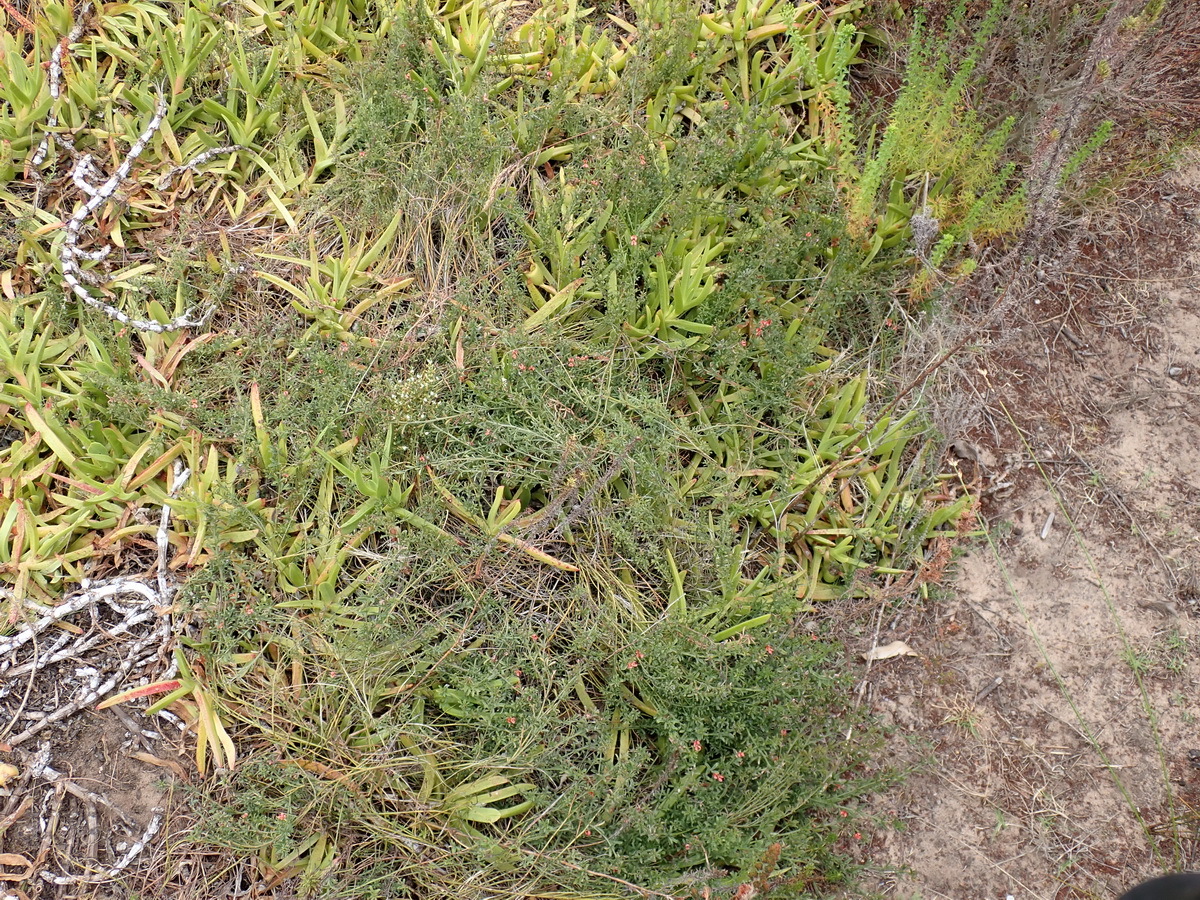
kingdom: Plantae
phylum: Tracheophyta
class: Magnoliopsida
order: Fabales
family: Fabaceae
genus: Indigofera
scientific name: Indigofera priorii
